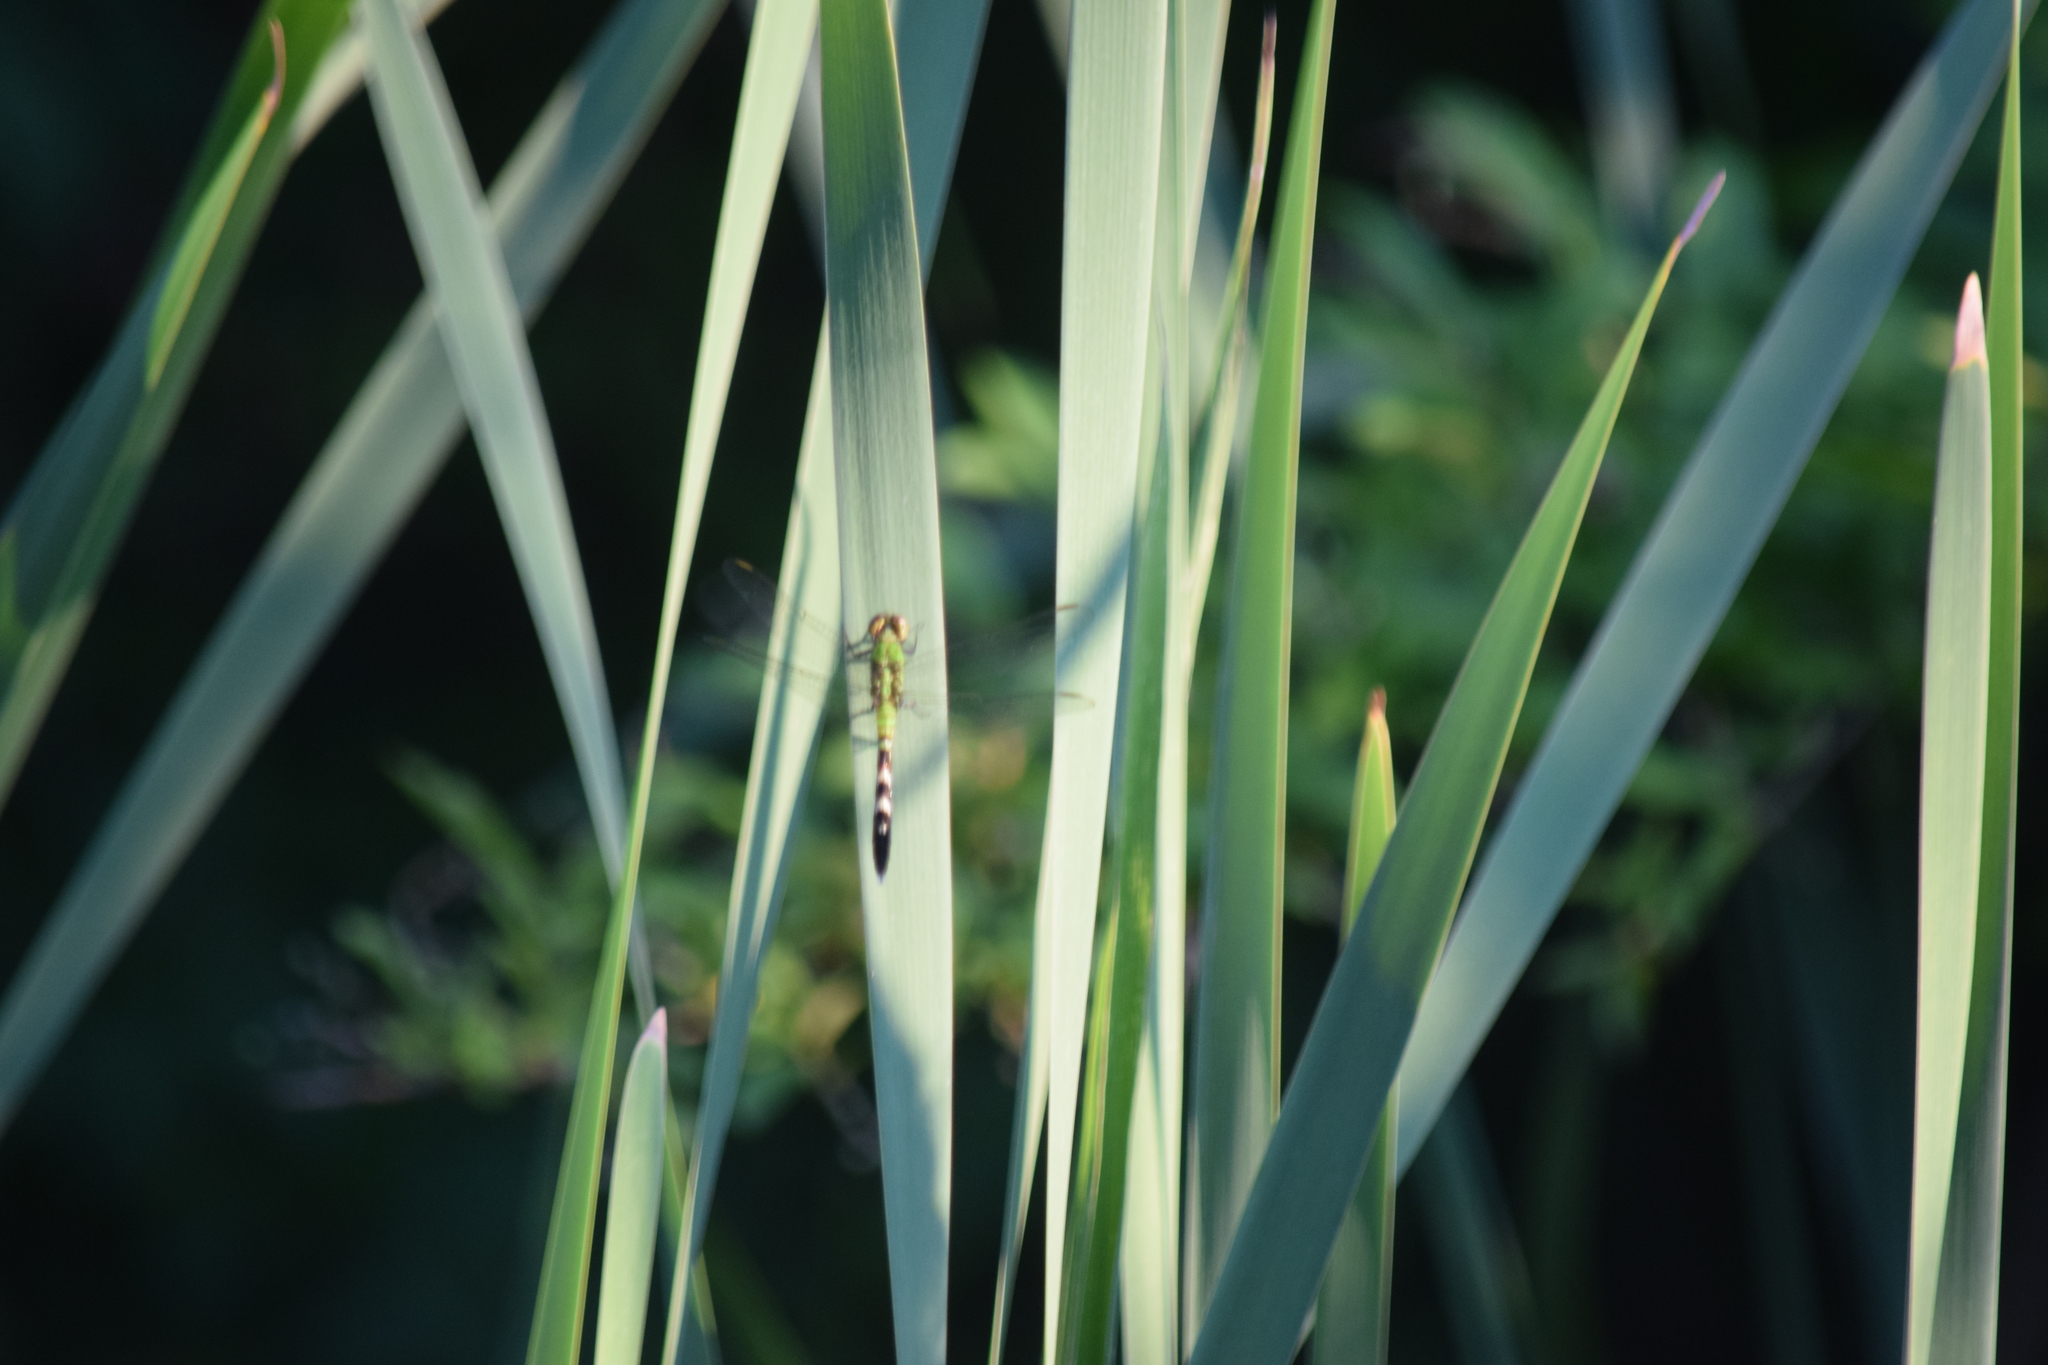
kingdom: Animalia
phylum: Arthropoda
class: Insecta
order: Odonata
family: Libellulidae
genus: Erythemis
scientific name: Erythemis simplicicollis
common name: Eastern pondhawk
